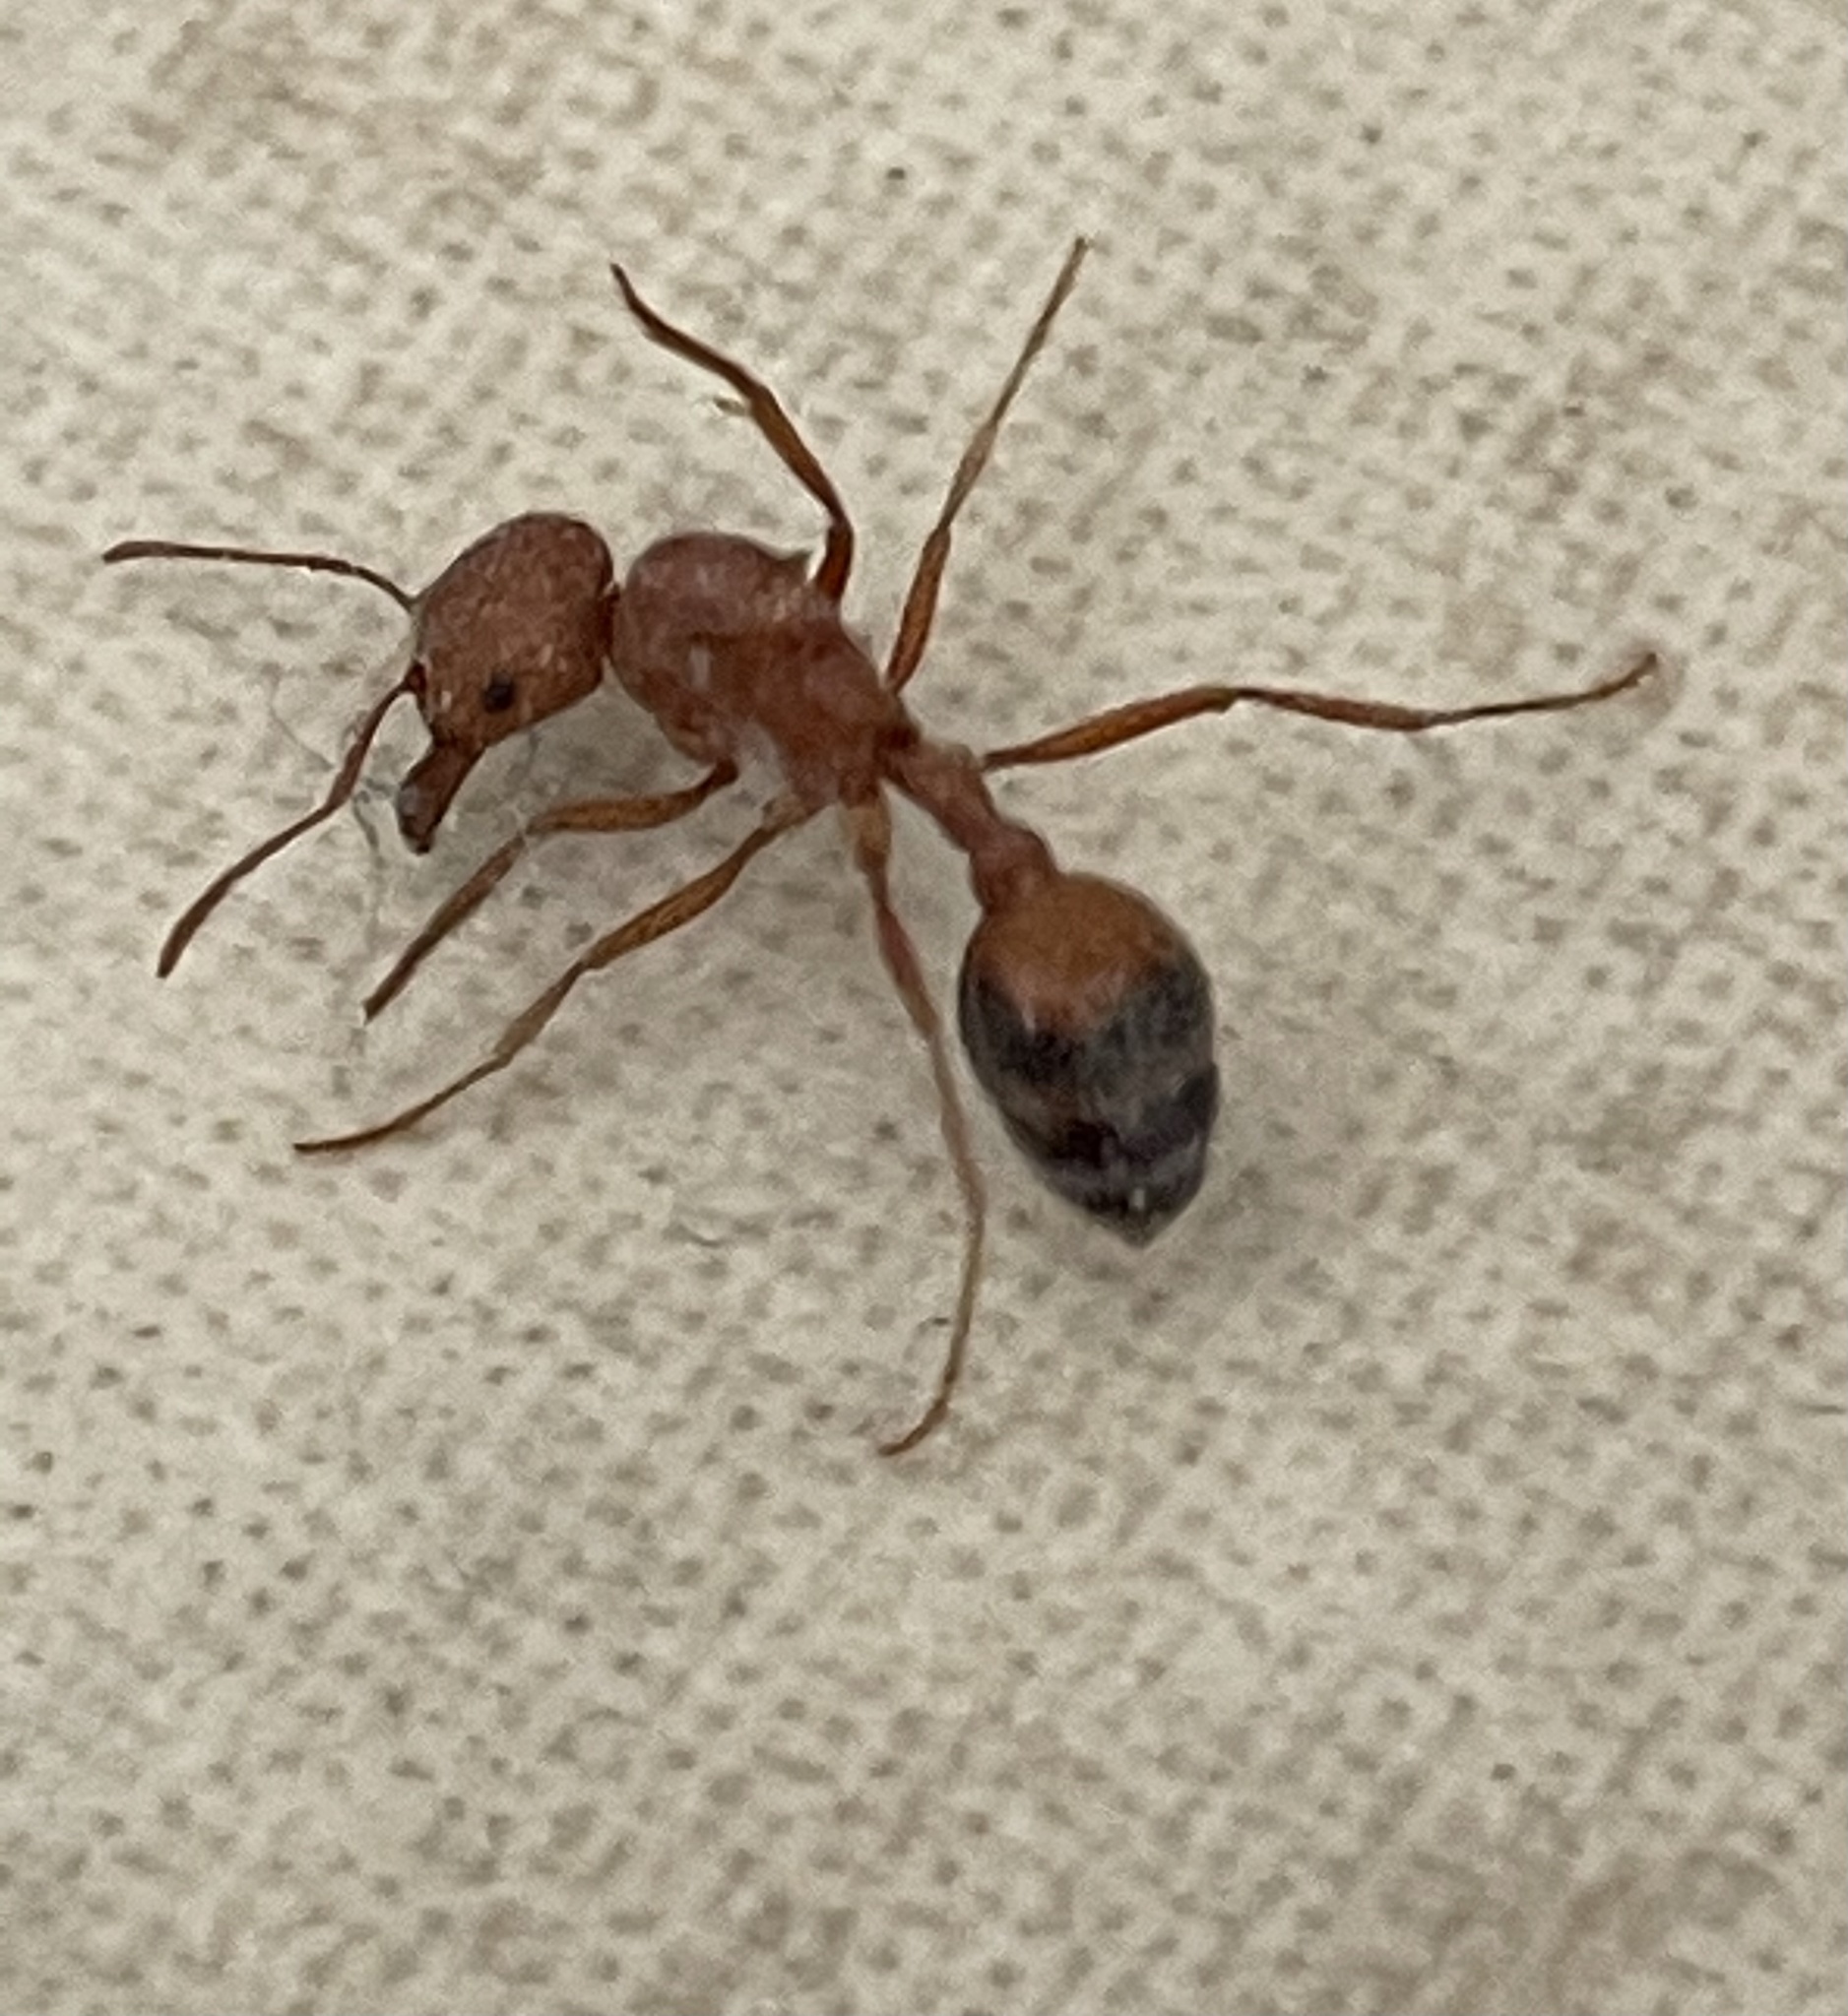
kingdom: Animalia
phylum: Arthropoda
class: Insecta
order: Hymenoptera
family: Formicidae
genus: Pogonomyrmex
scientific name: Pogonomyrmex californicus
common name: California harvester ant
